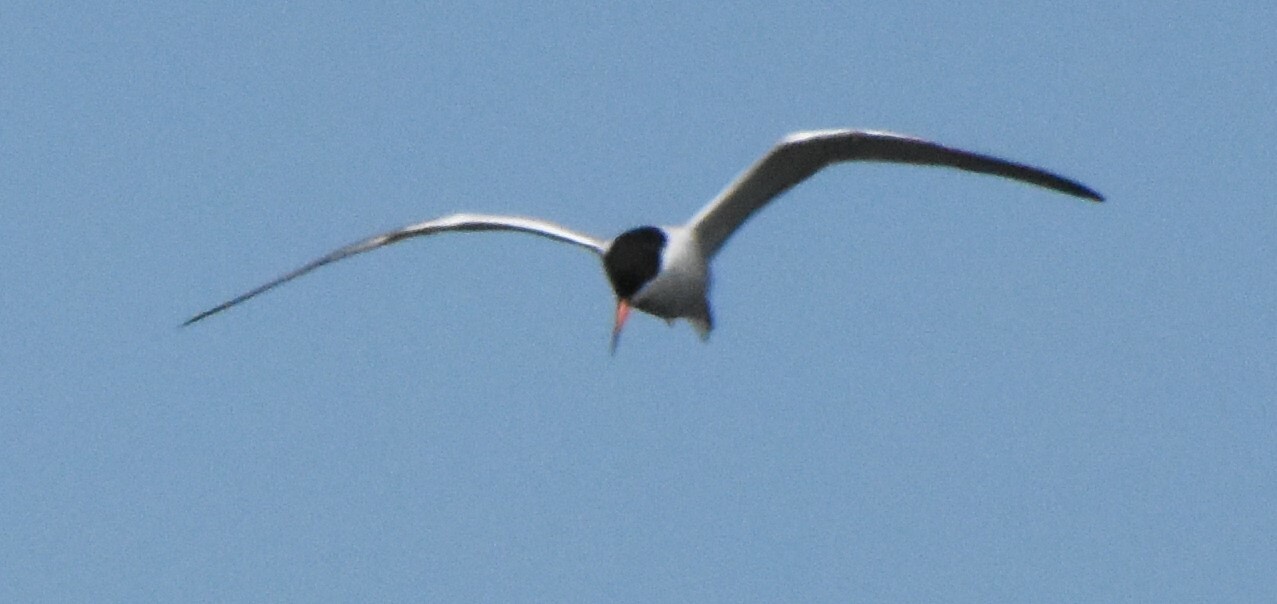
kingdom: Animalia
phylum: Chordata
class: Aves
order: Charadriiformes
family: Laridae
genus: Sterna
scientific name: Sterna hirundo
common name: Common tern
